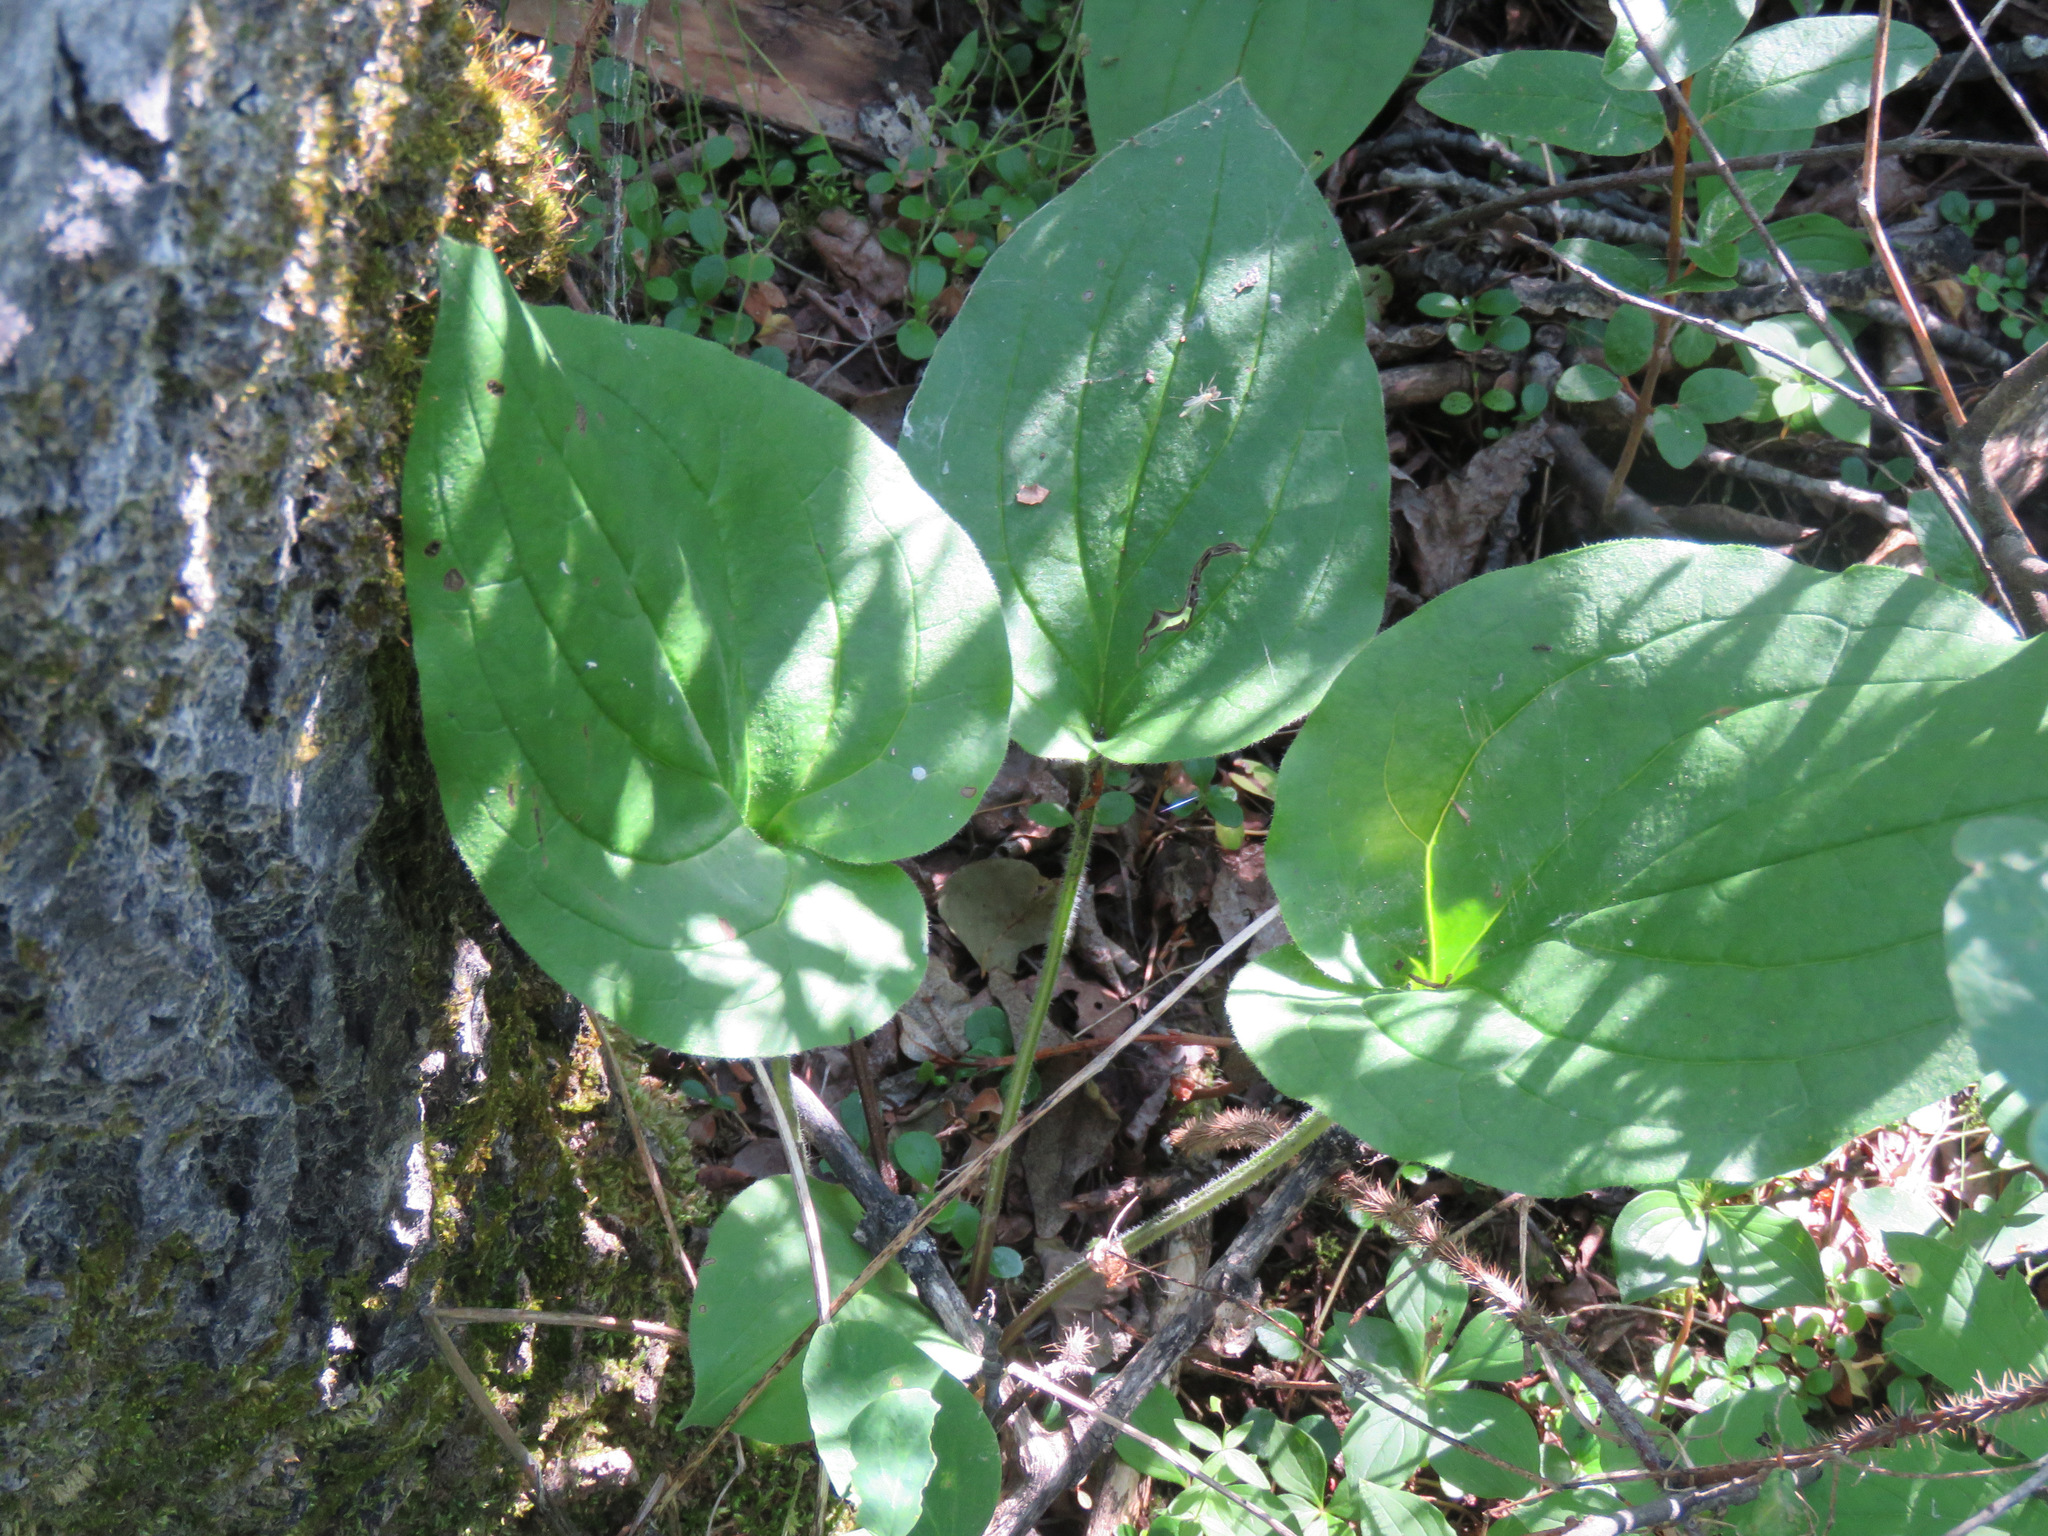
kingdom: Plantae
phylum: Tracheophyta
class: Magnoliopsida
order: Boraginales
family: Boraginaceae
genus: Mertensia
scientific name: Mertensia paniculata
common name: Panicled bluebells
